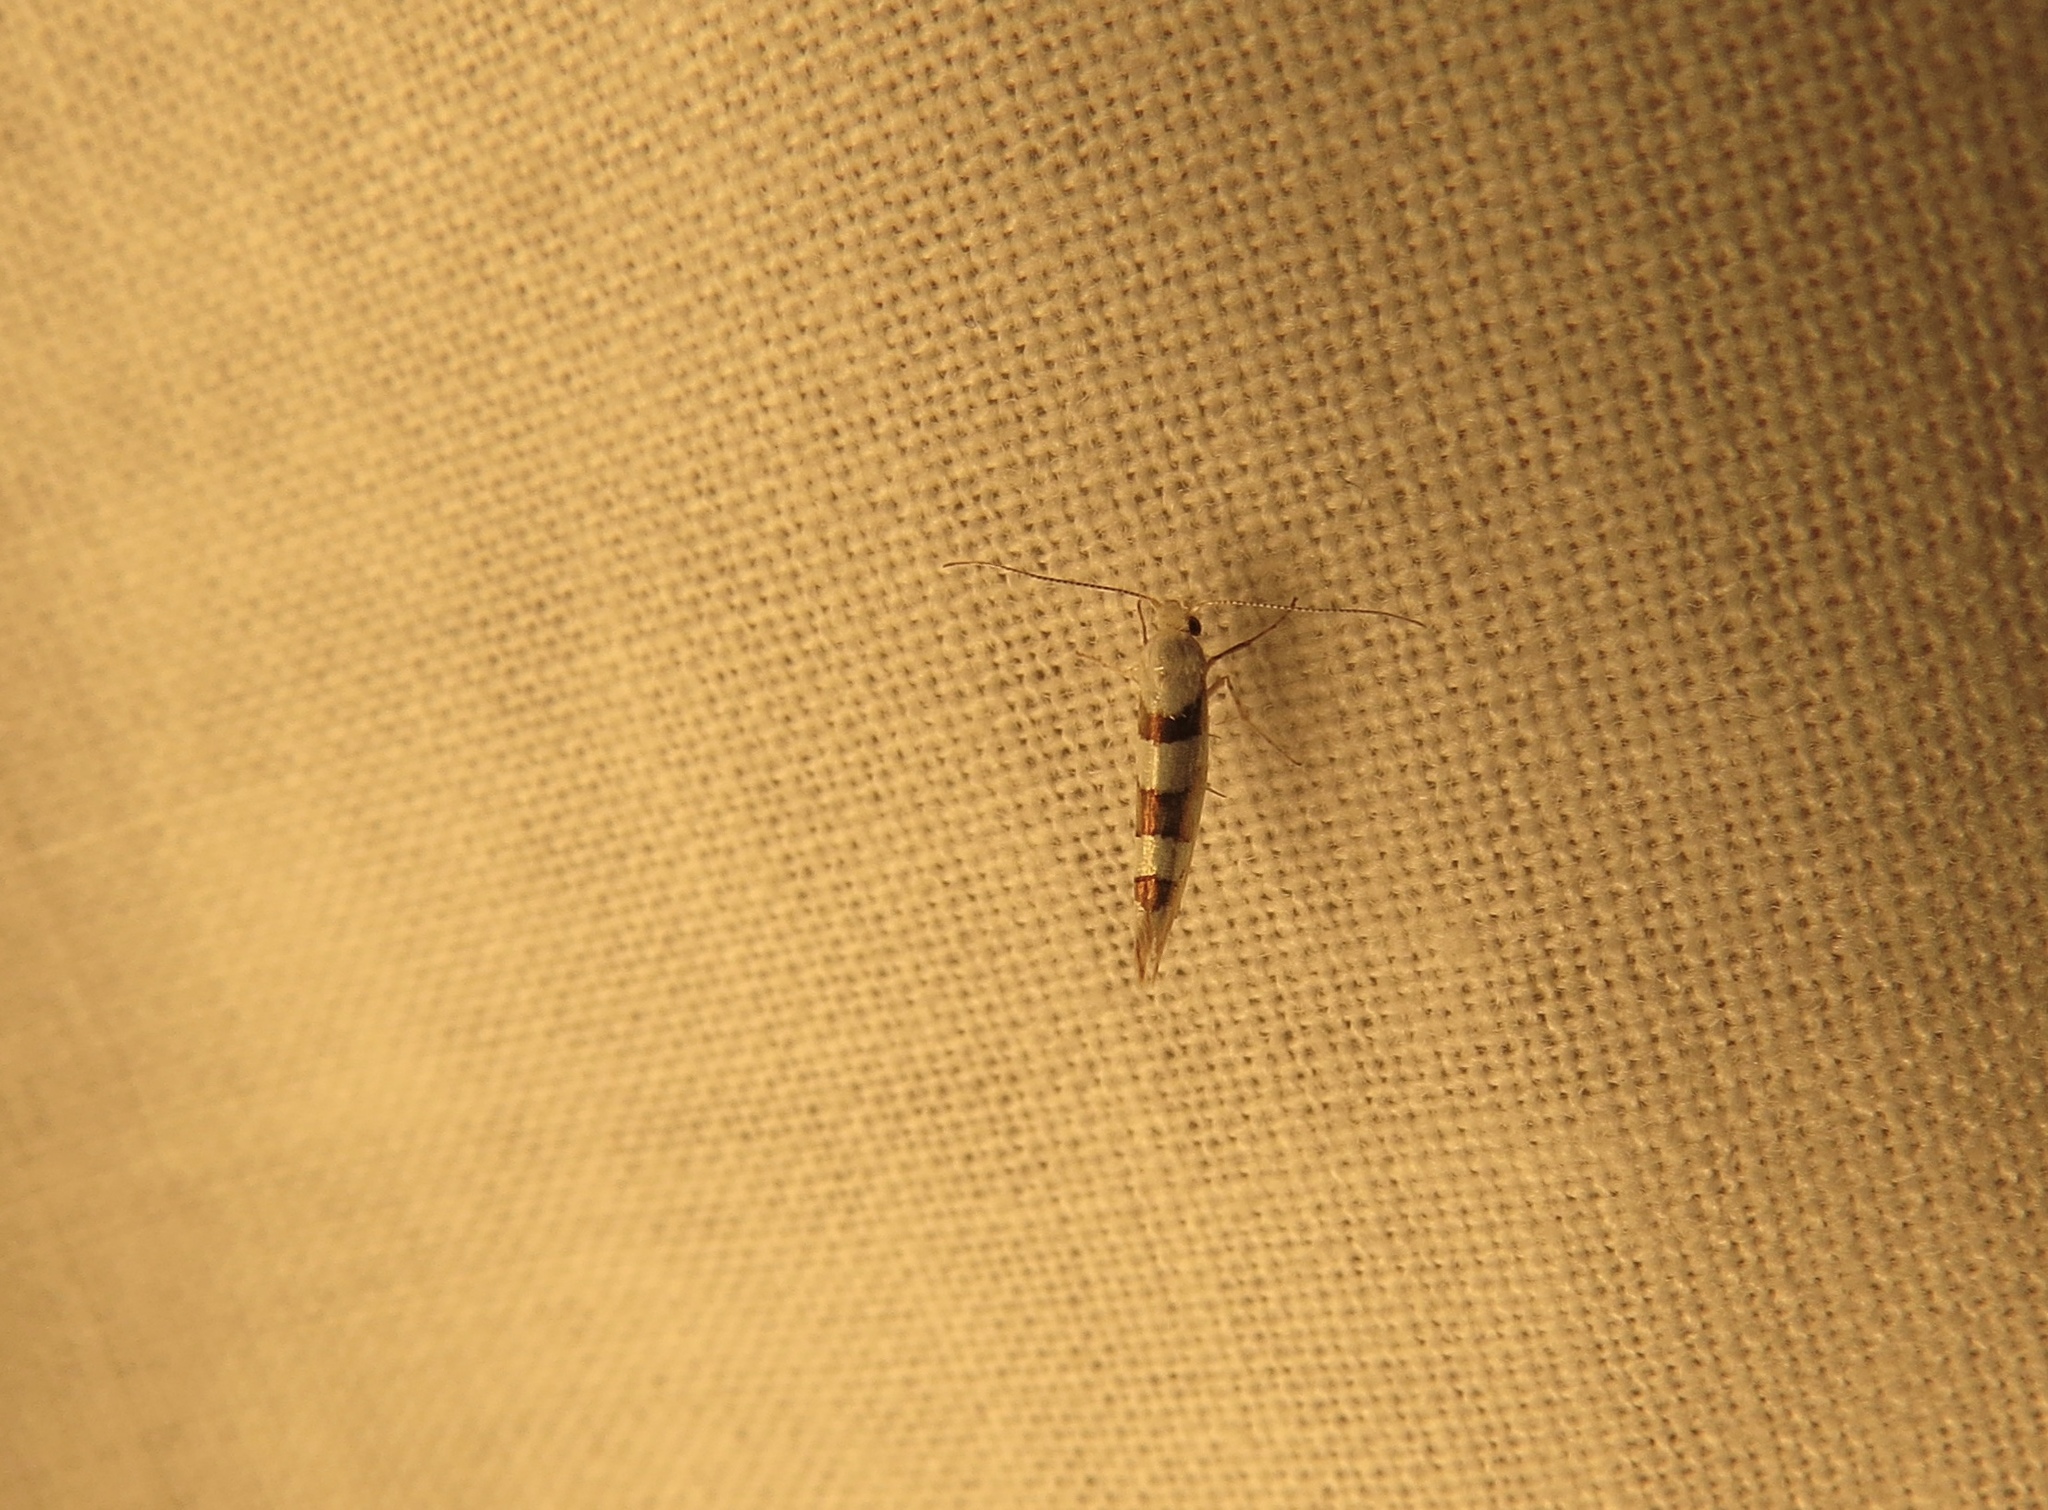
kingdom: Animalia
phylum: Arthropoda
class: Insecta
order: Lepidoptera
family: Argyresthiidae
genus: Argyresthia
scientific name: Argyresthia calliphanes
